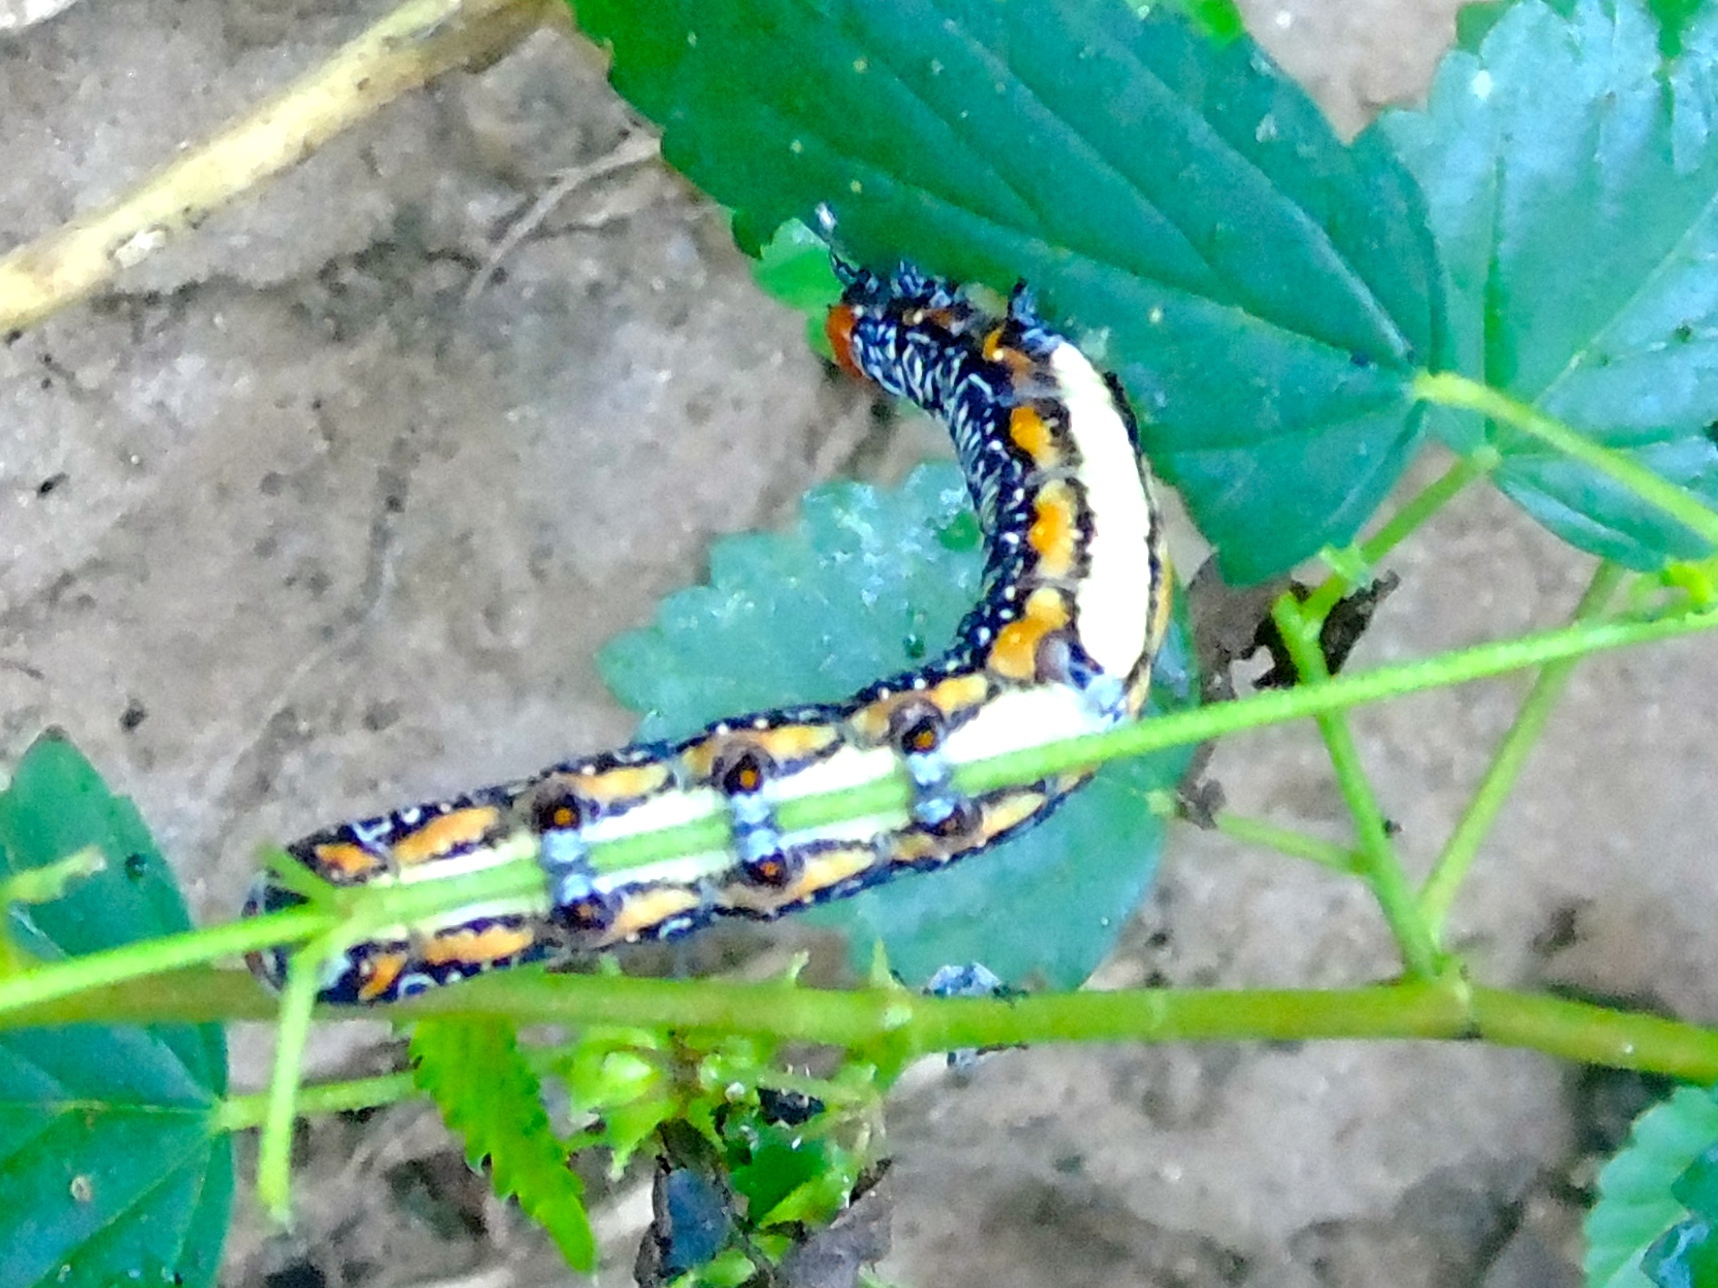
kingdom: Animalia
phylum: Arthropoda
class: Insecta
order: Lepidoptera
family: Erebidae
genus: Diphthera
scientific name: Diphthera
